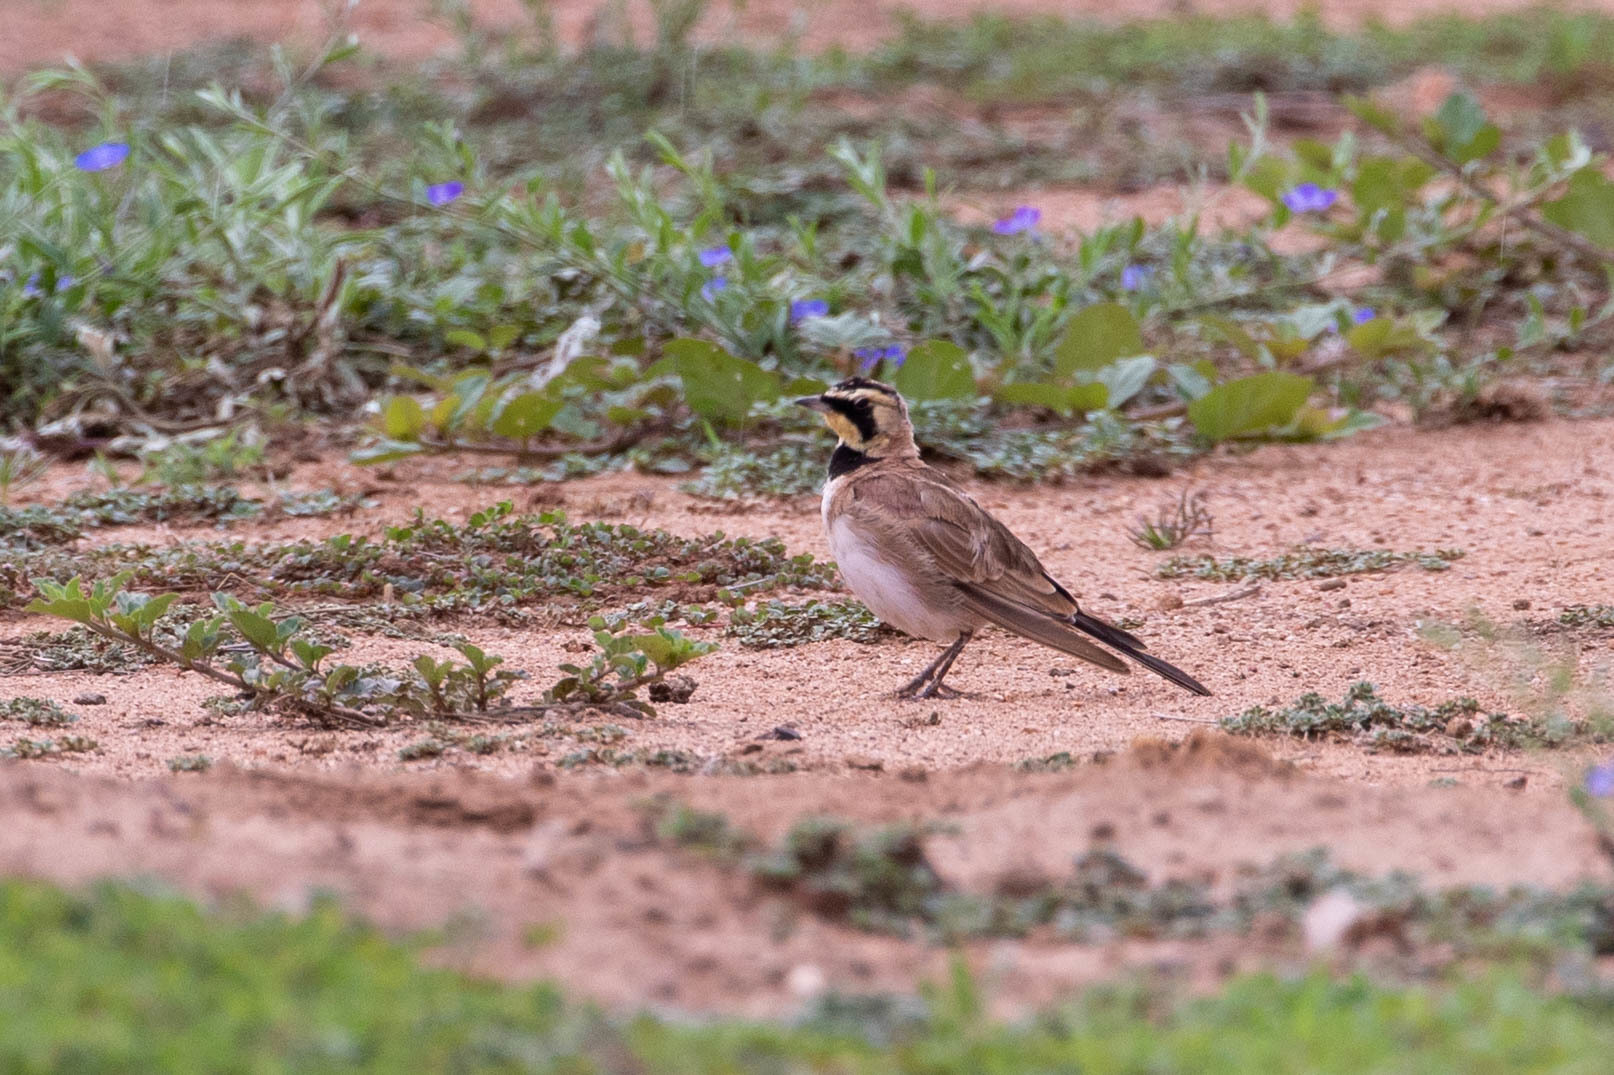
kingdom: Animalia
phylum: Chordata
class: Aves
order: Passeriformes
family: Alaudidae
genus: Eremophila
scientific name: Eremophila alpestris
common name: Horned lark
